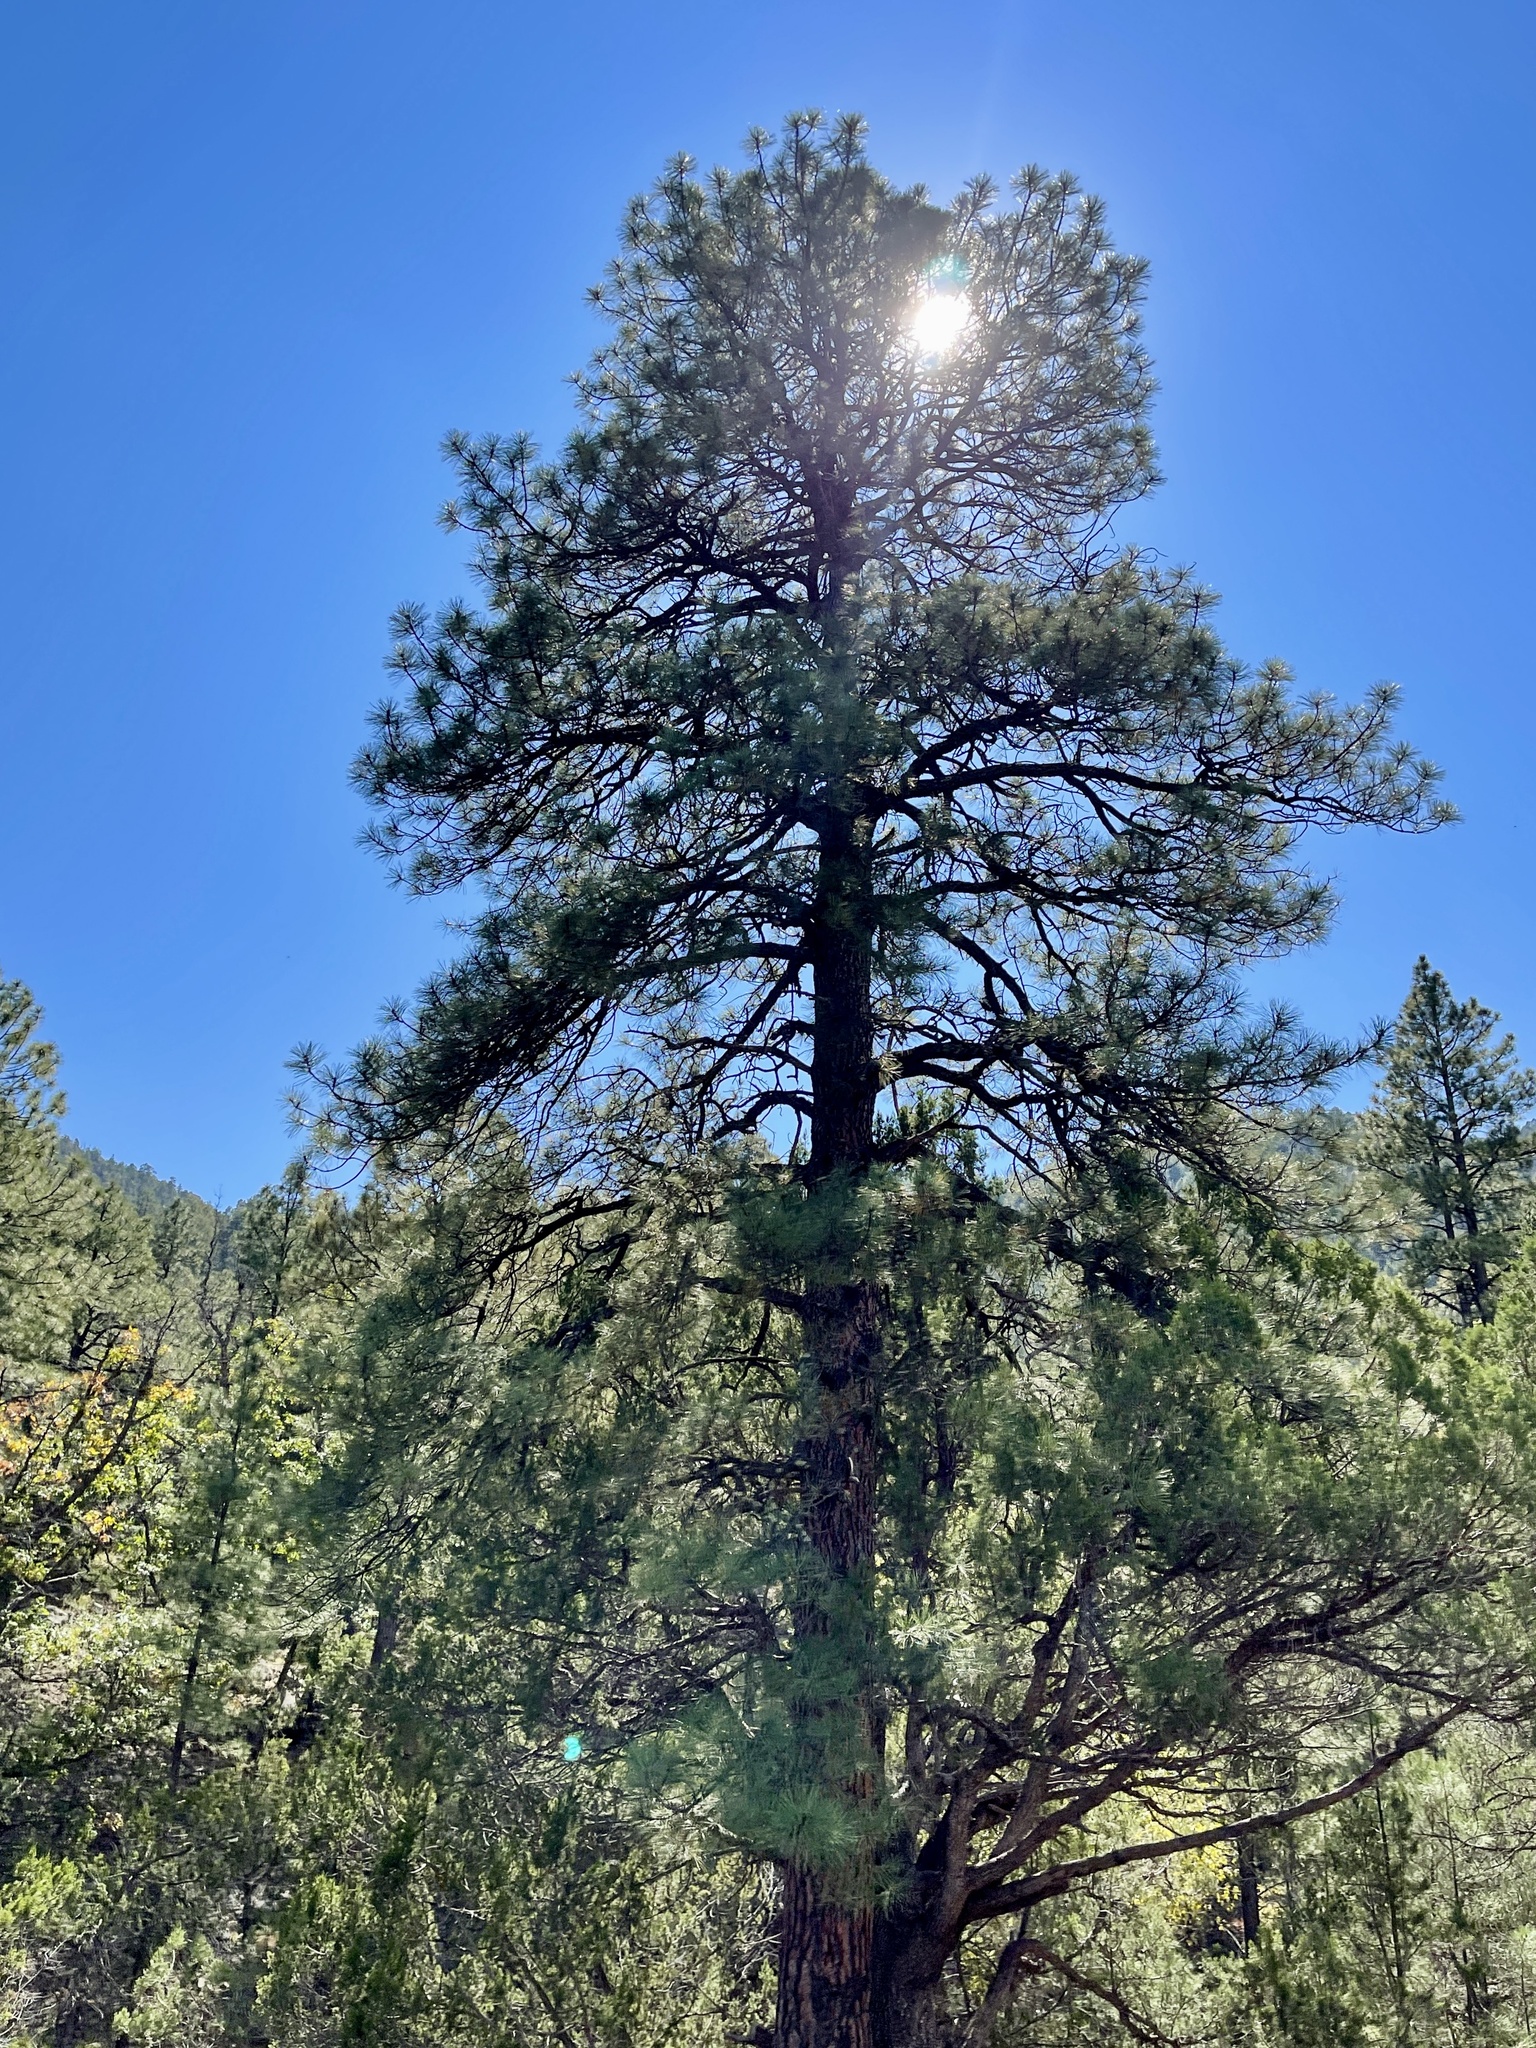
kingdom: Plantae
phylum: Tracheophyta
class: Pinopsida
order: Pinales
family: Pinaceae
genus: Pinus
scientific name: Pinus ponderosa
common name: Western yellow-pine
